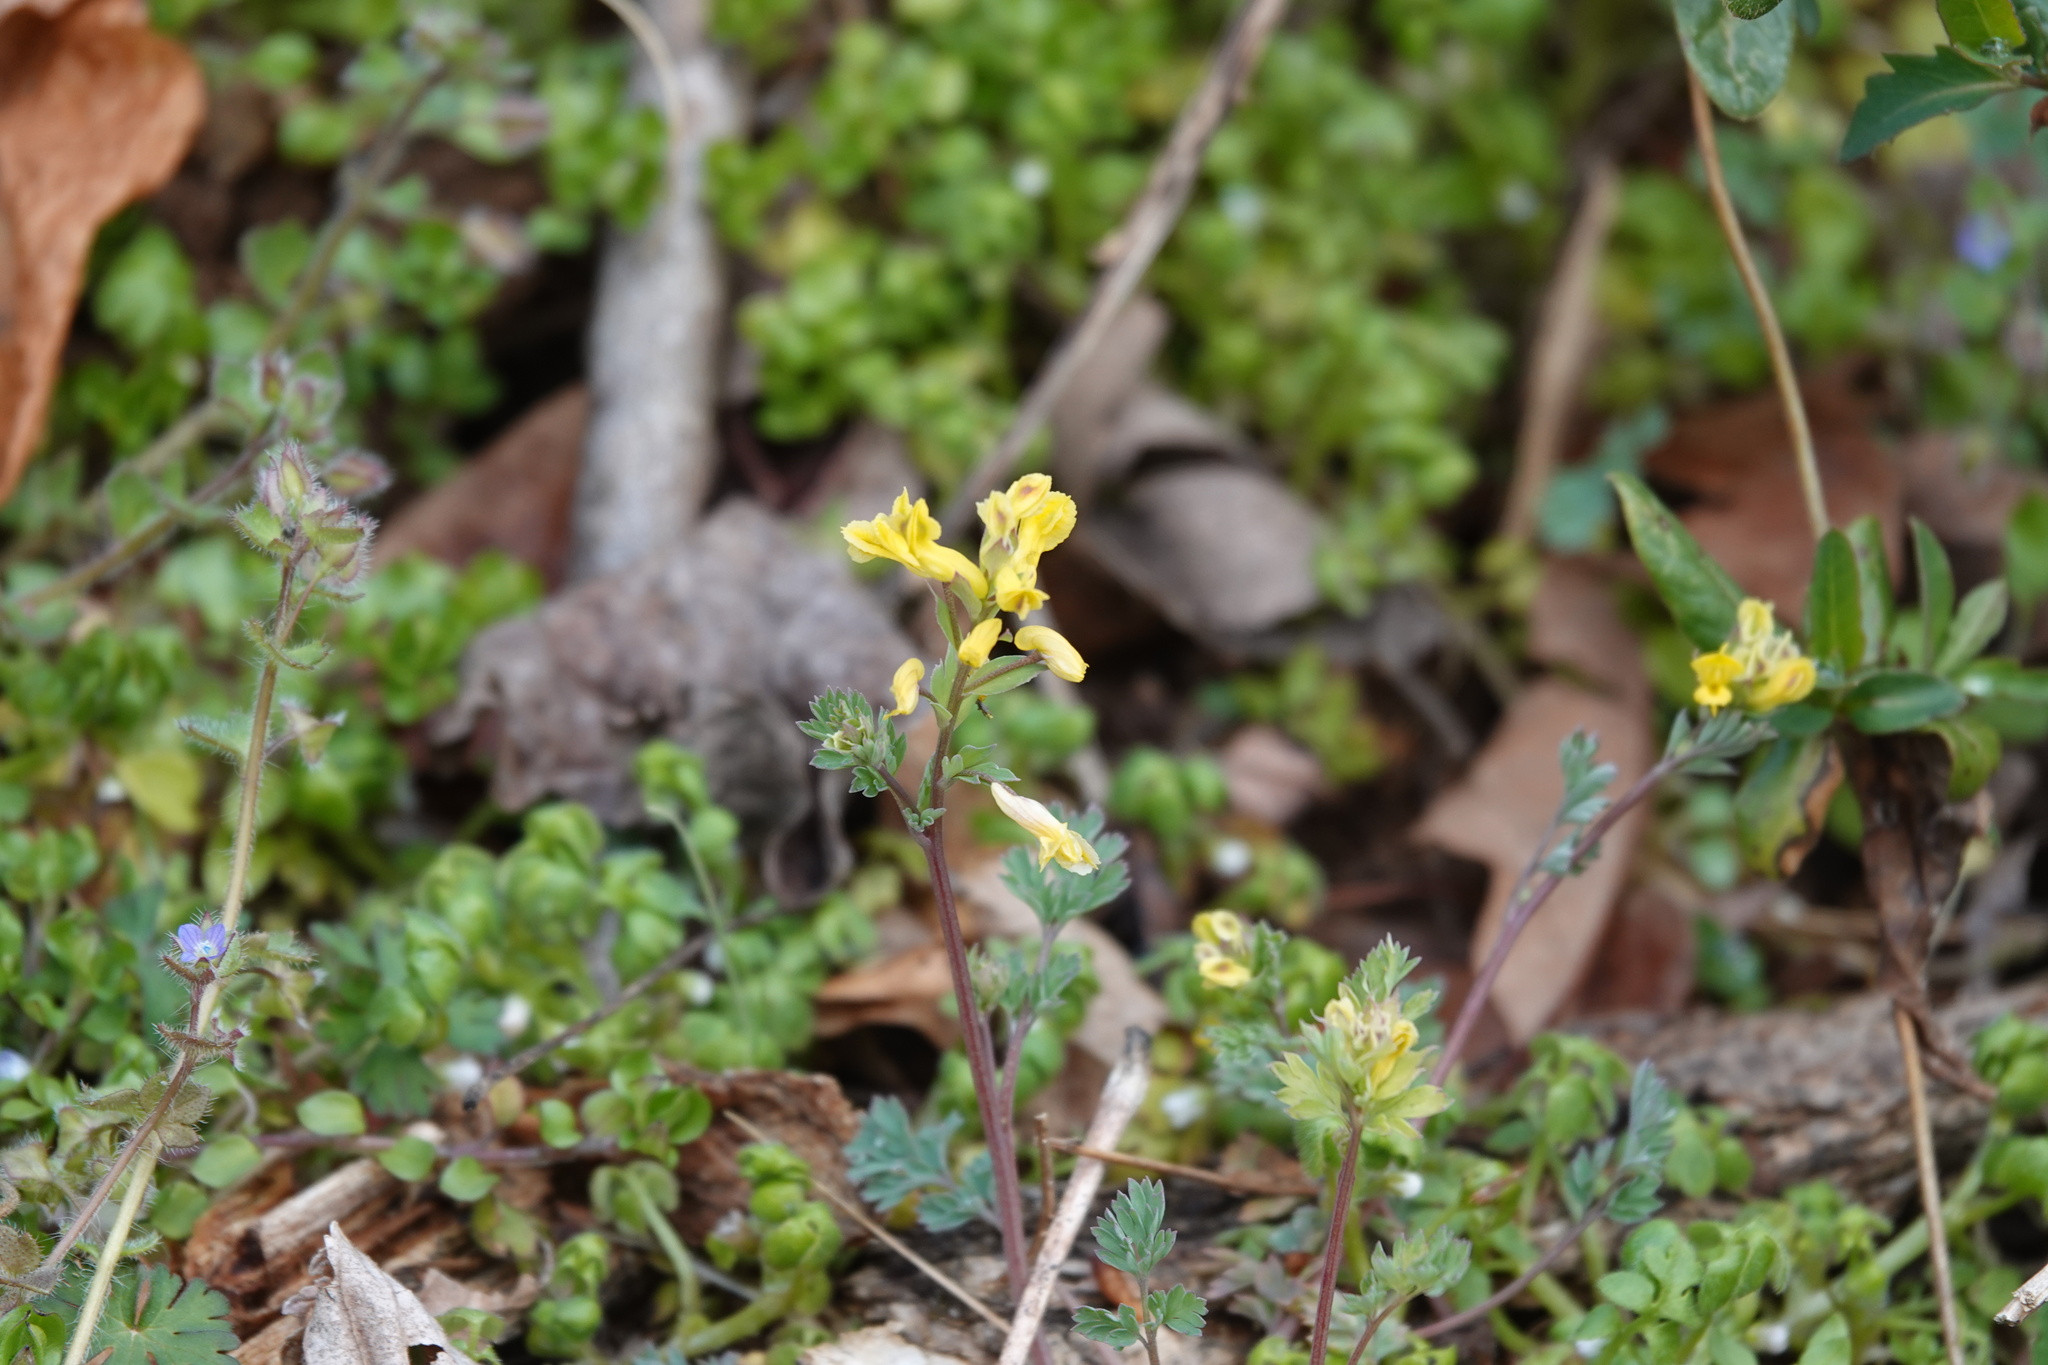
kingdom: Plantae
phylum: Tracheophyta
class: Magnoliopsida
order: Ranunculales
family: Papaveraceae
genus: Corydalis
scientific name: Corydalis flavula
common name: Yellow corydalis
